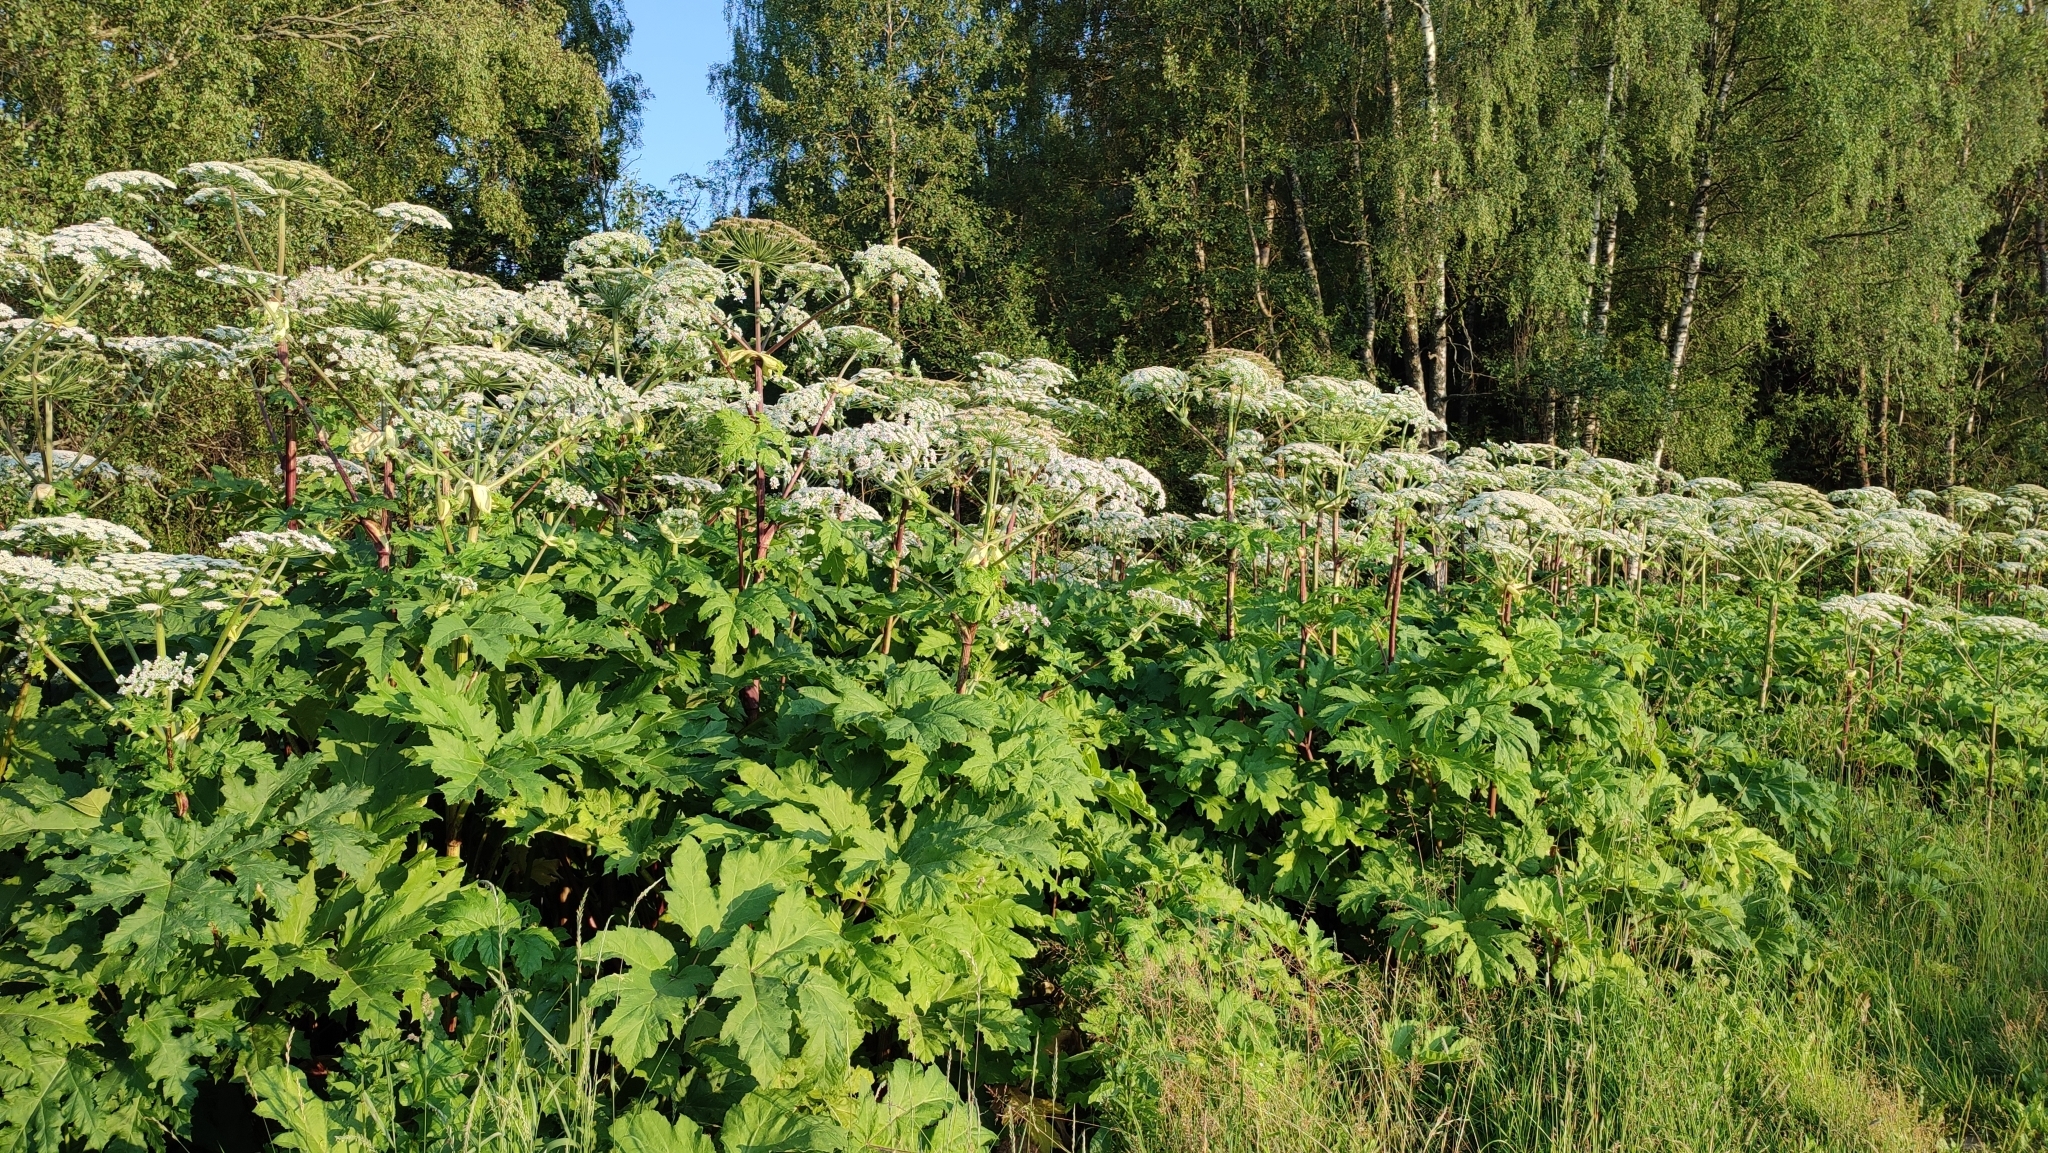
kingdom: Plantae
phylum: Tracheophyta
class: Magnoliopsida
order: Apiales
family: Apiaceae
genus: Heracleum
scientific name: Heracleum sosnowskyi
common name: Sosnowsky's hogweed
